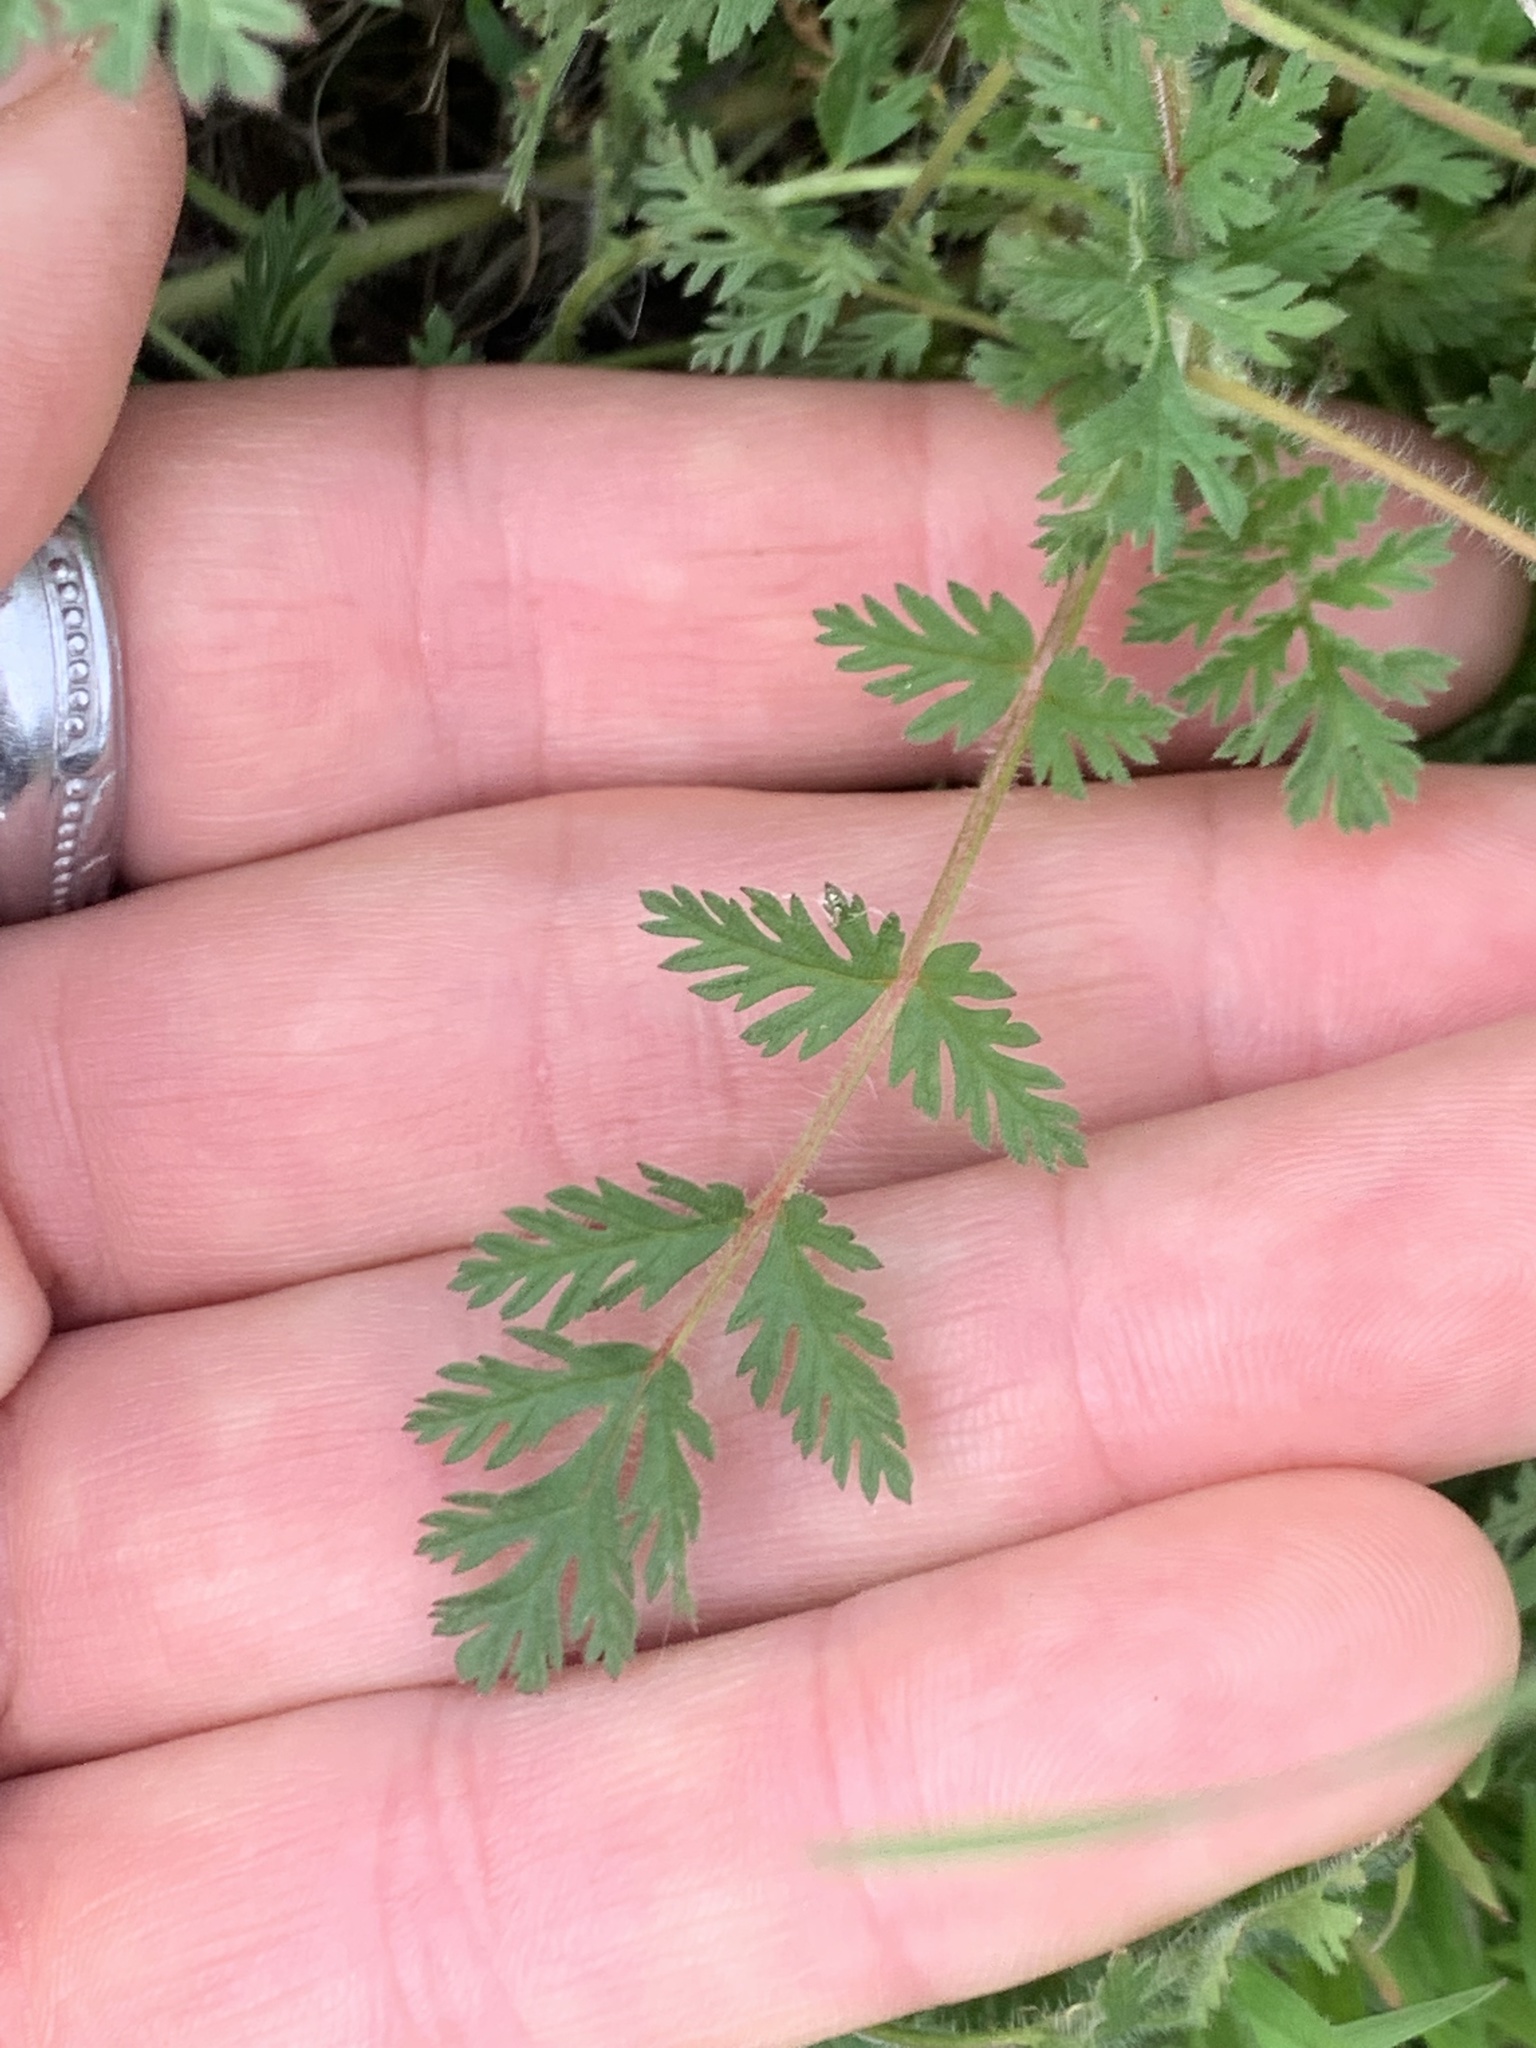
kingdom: Plantae
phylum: Tracheophyta
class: Magnoliopsida
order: Geraniales
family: Geraniaceae
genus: Erodium
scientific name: Erodium cicutarium
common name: Common stork's-bill
